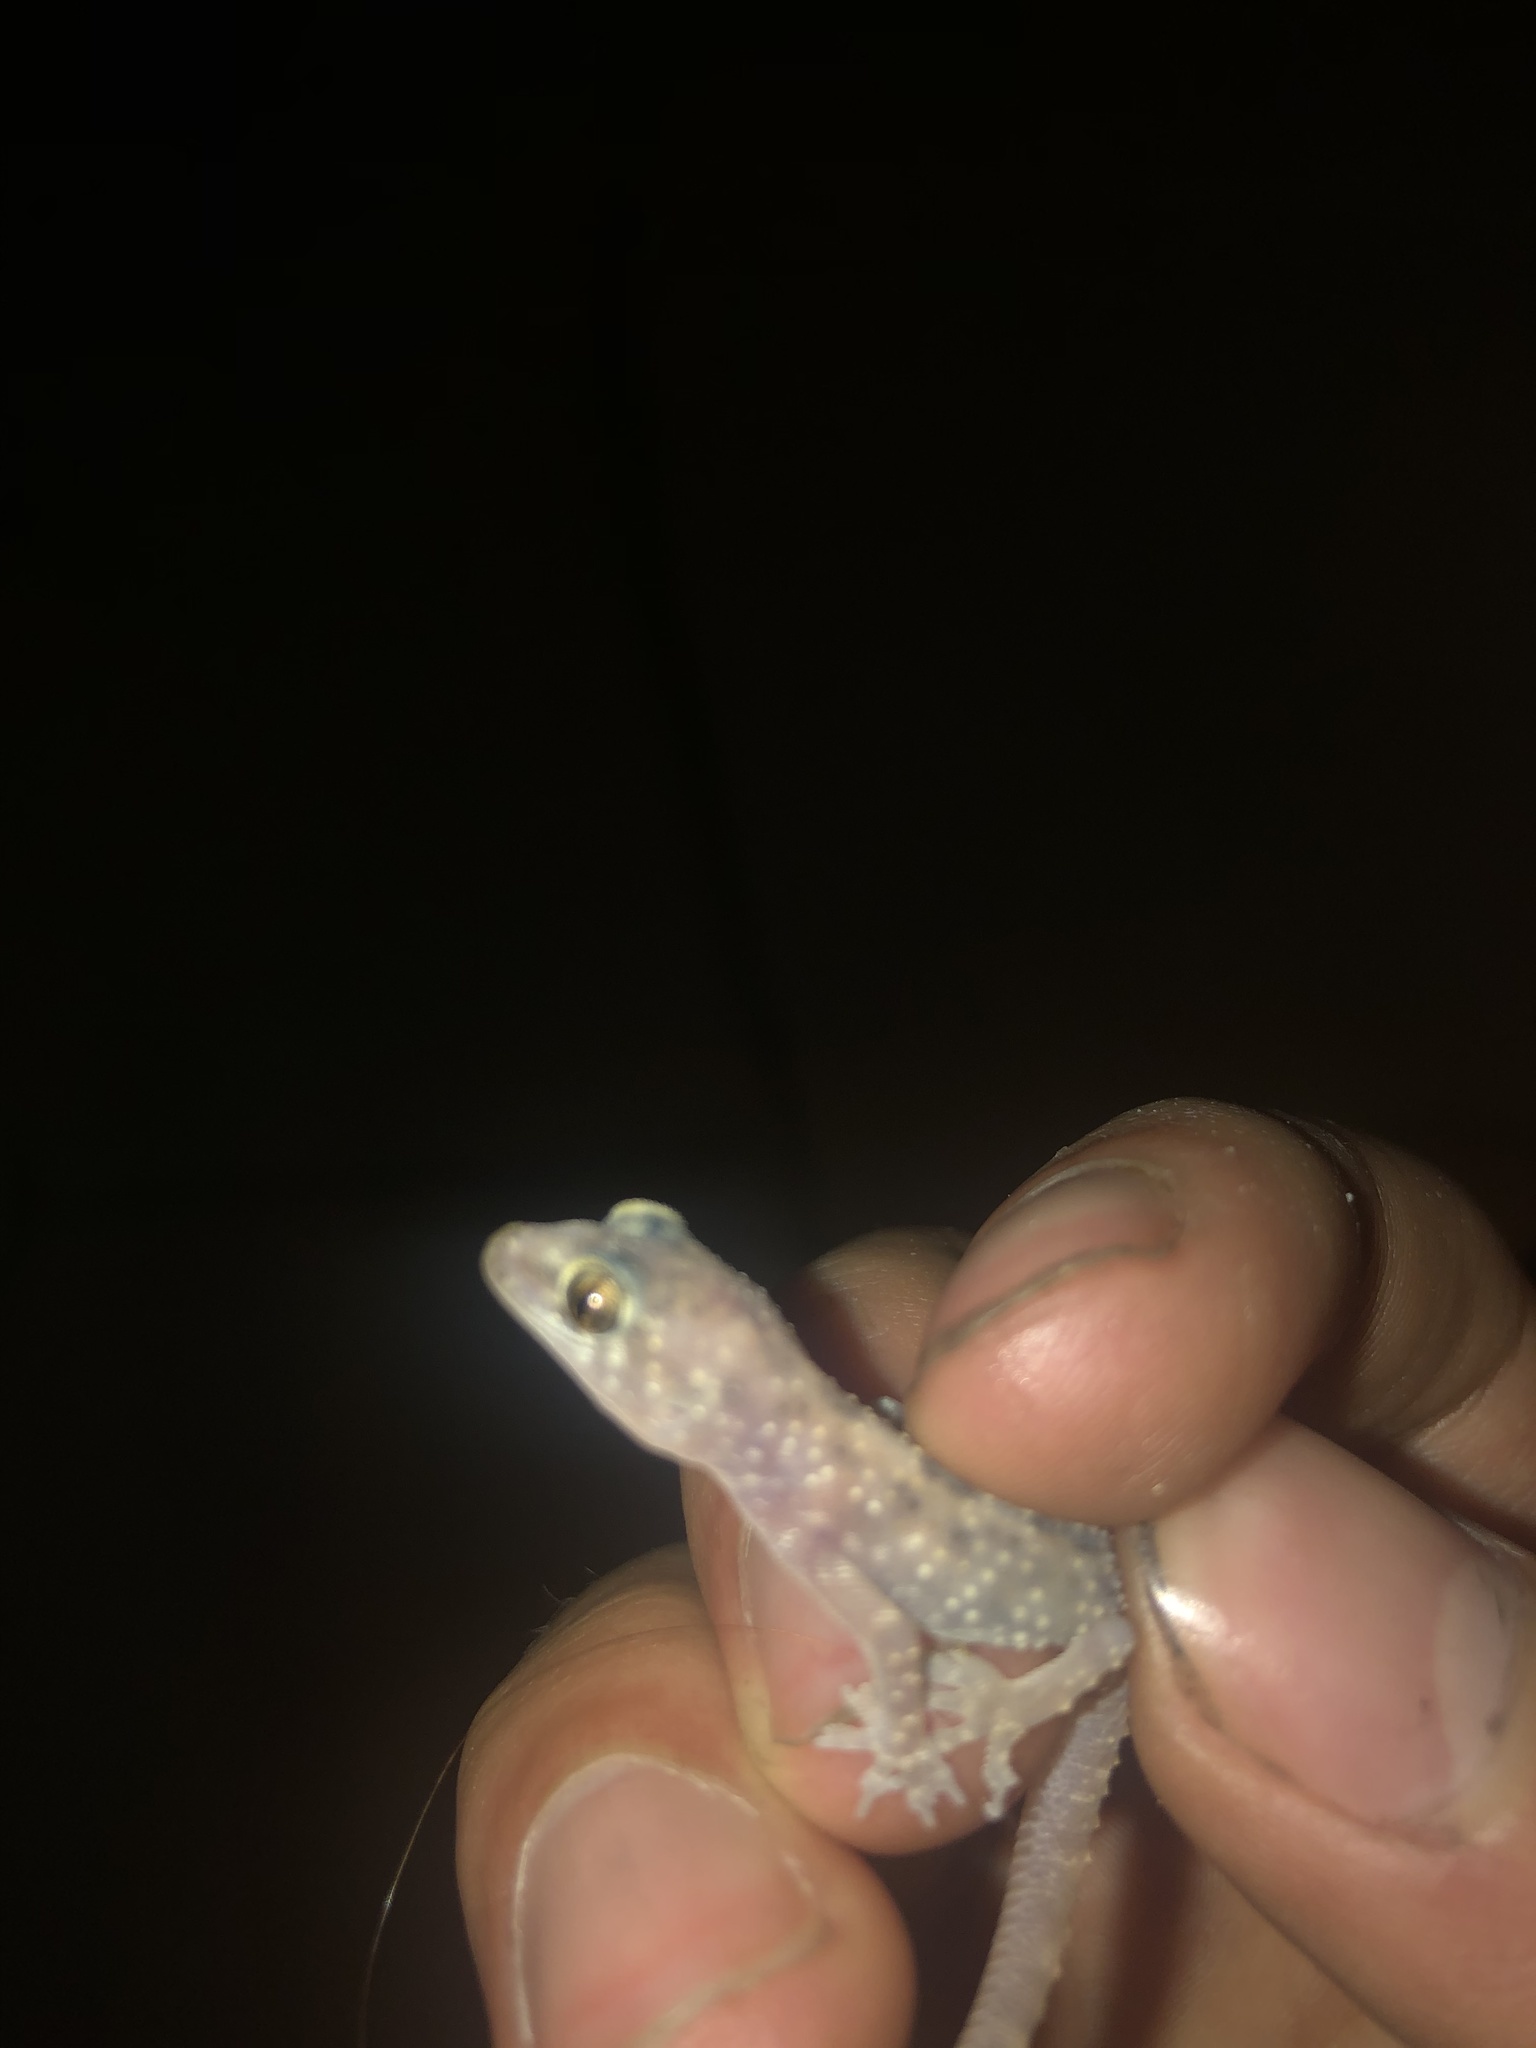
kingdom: Animalia
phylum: Chordata
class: Squamata
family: Gekkonidae
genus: Hemidactylus
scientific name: Hemidactylus turcicus
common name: Turkish gecko
